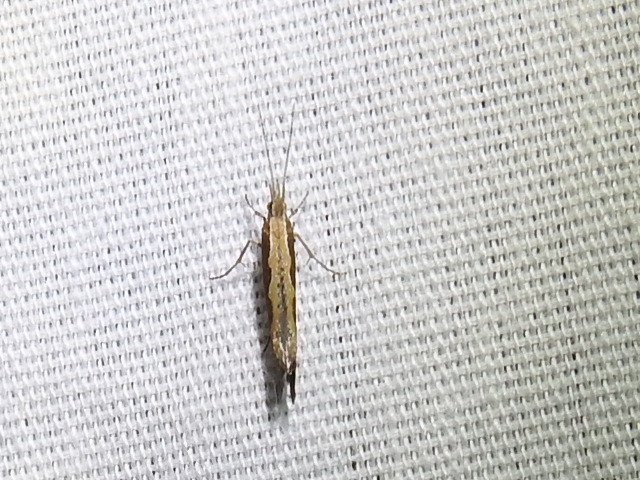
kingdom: Animalia
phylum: Arthropoda
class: Insecta
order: Lepidoptera
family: Plutellidae
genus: Plutella
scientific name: Plutella xylostella
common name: Diamond-back moth
